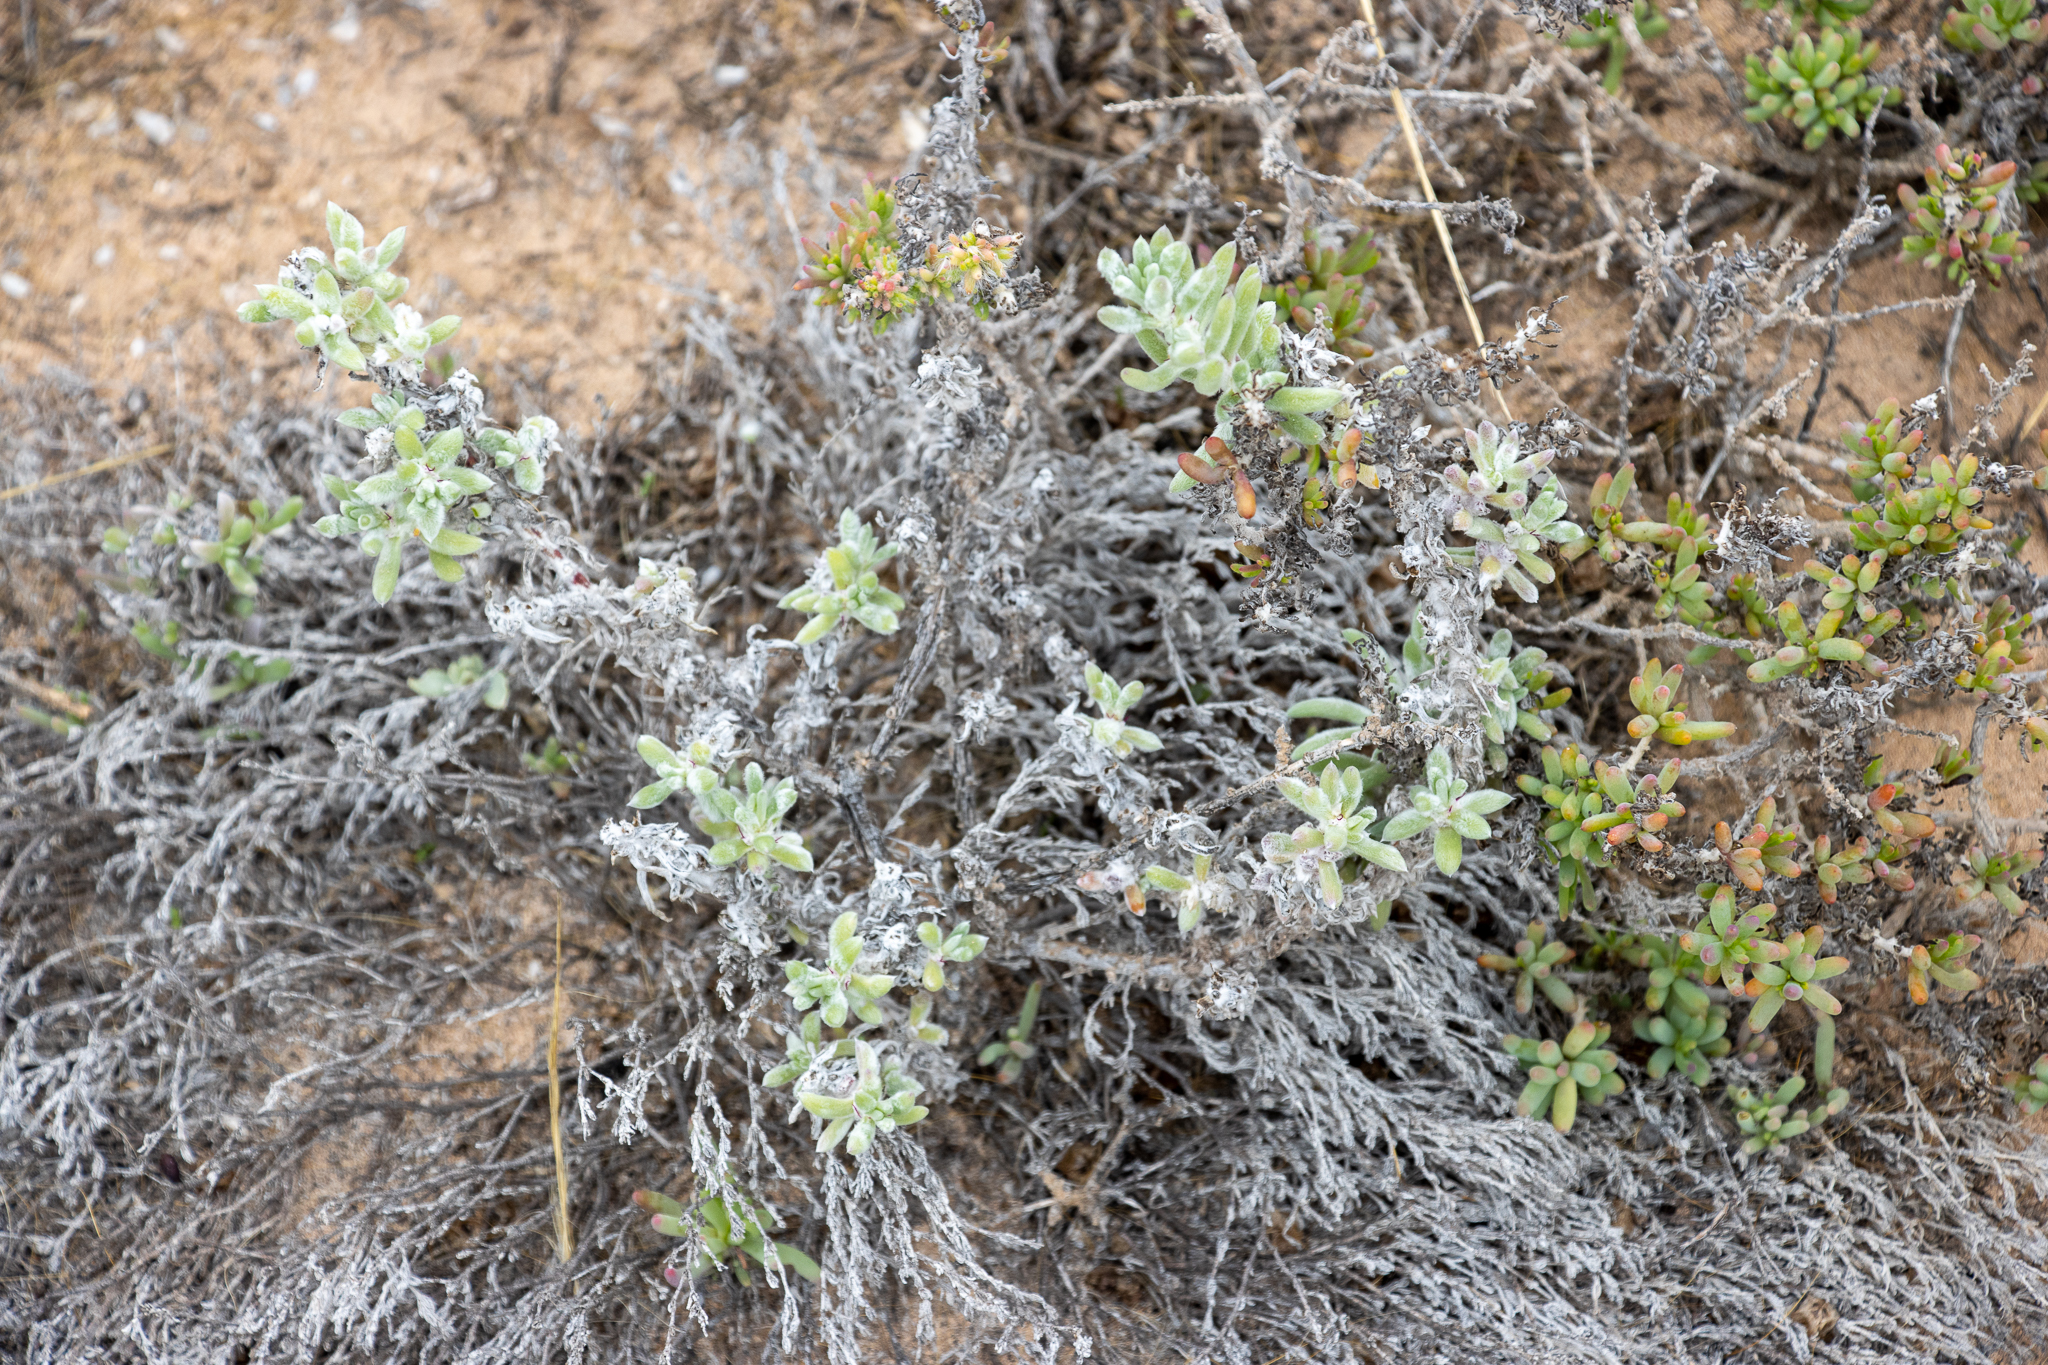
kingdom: Plantae
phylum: Tracheophyta
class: Magnoliopsida
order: Caryophyllales
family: Amaranthaceae
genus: Sclerolaena
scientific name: Sclerolaena diacantha
